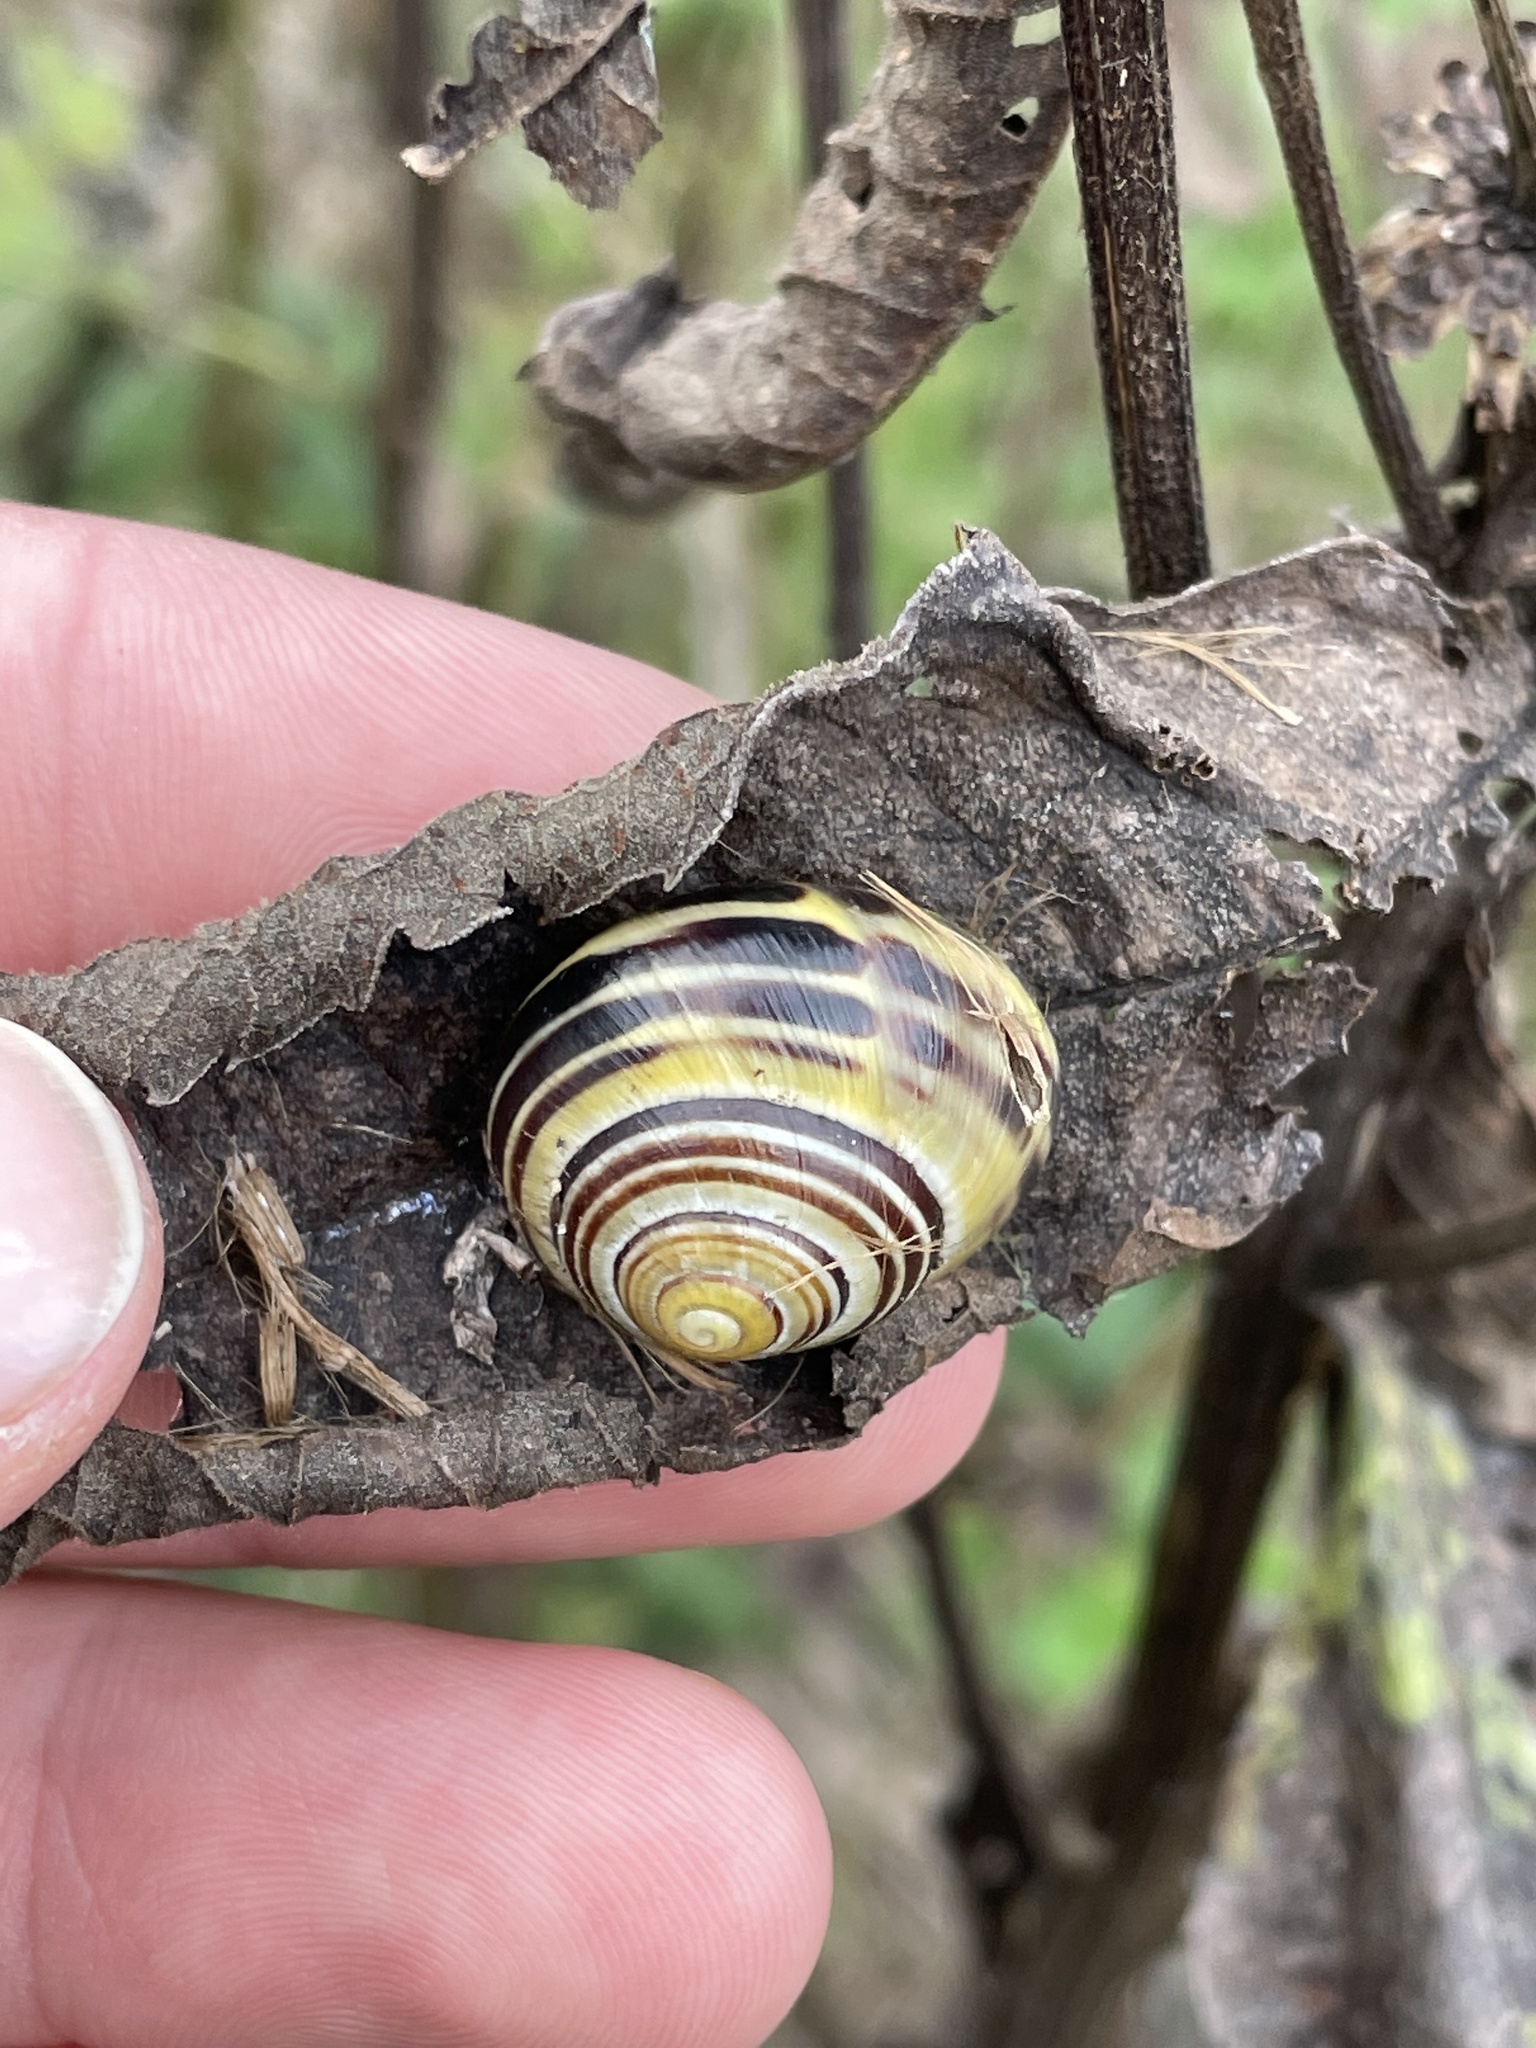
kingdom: Animalia
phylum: Mollusca
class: Gastropoda
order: Stylommatophora
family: Helicidae
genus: Cepaea
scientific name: Cepaea
